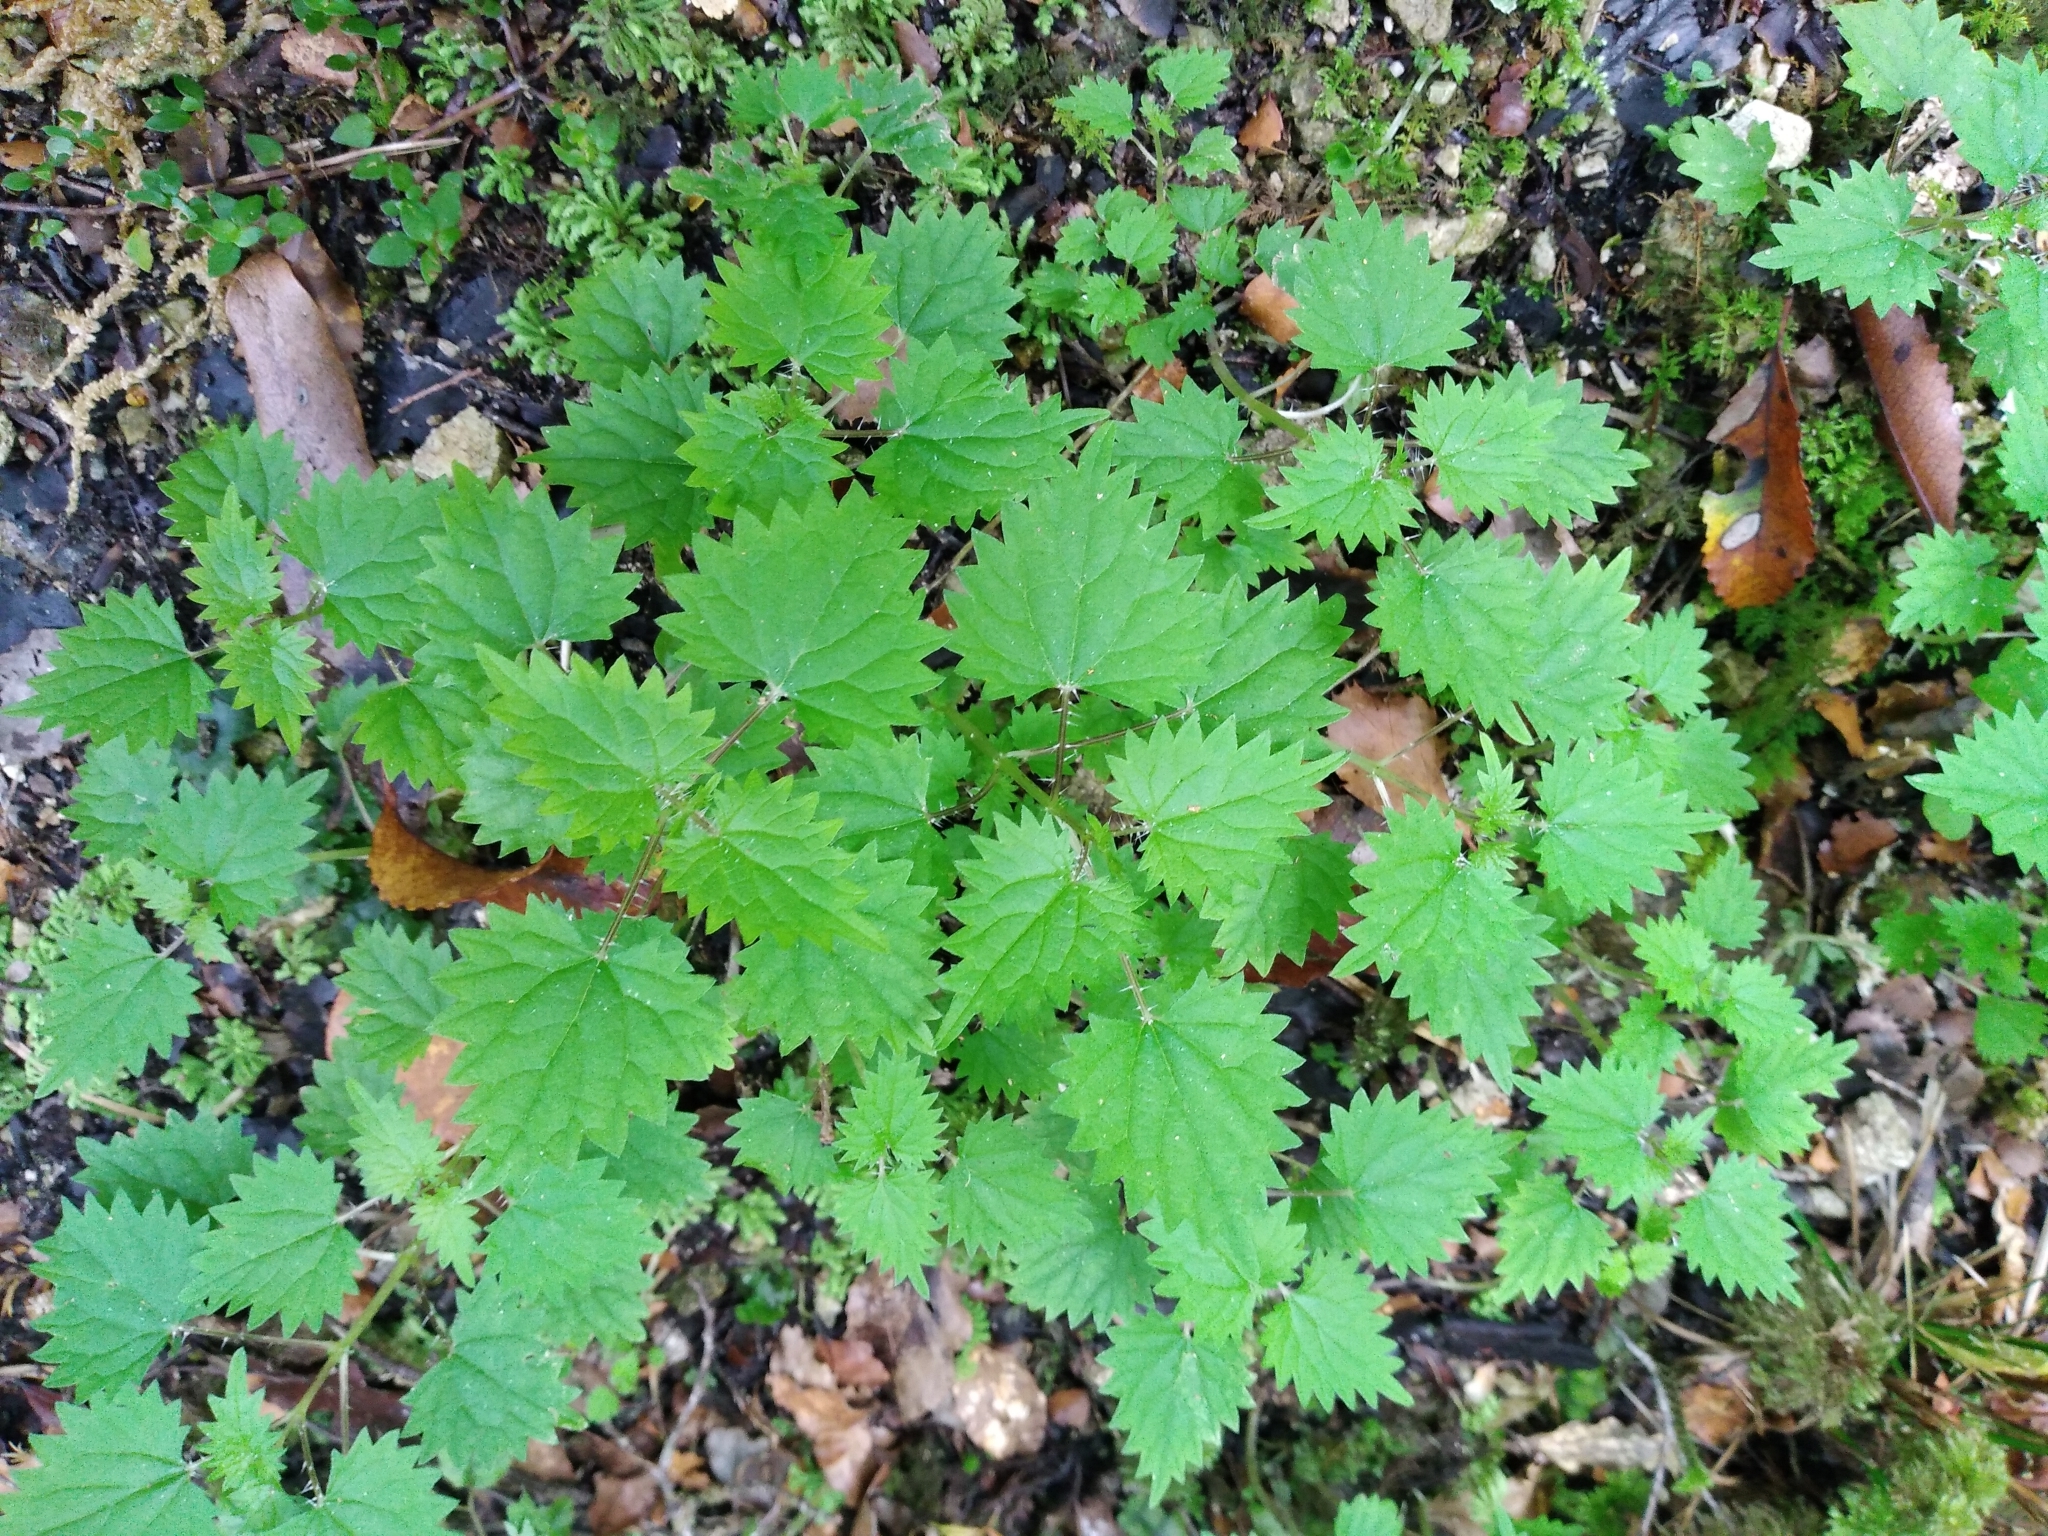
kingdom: Plantae
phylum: Tracheophyta
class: Magnoliopsida
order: Rosales
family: Urticaceae
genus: Urtica
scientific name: Urtica sykesii
